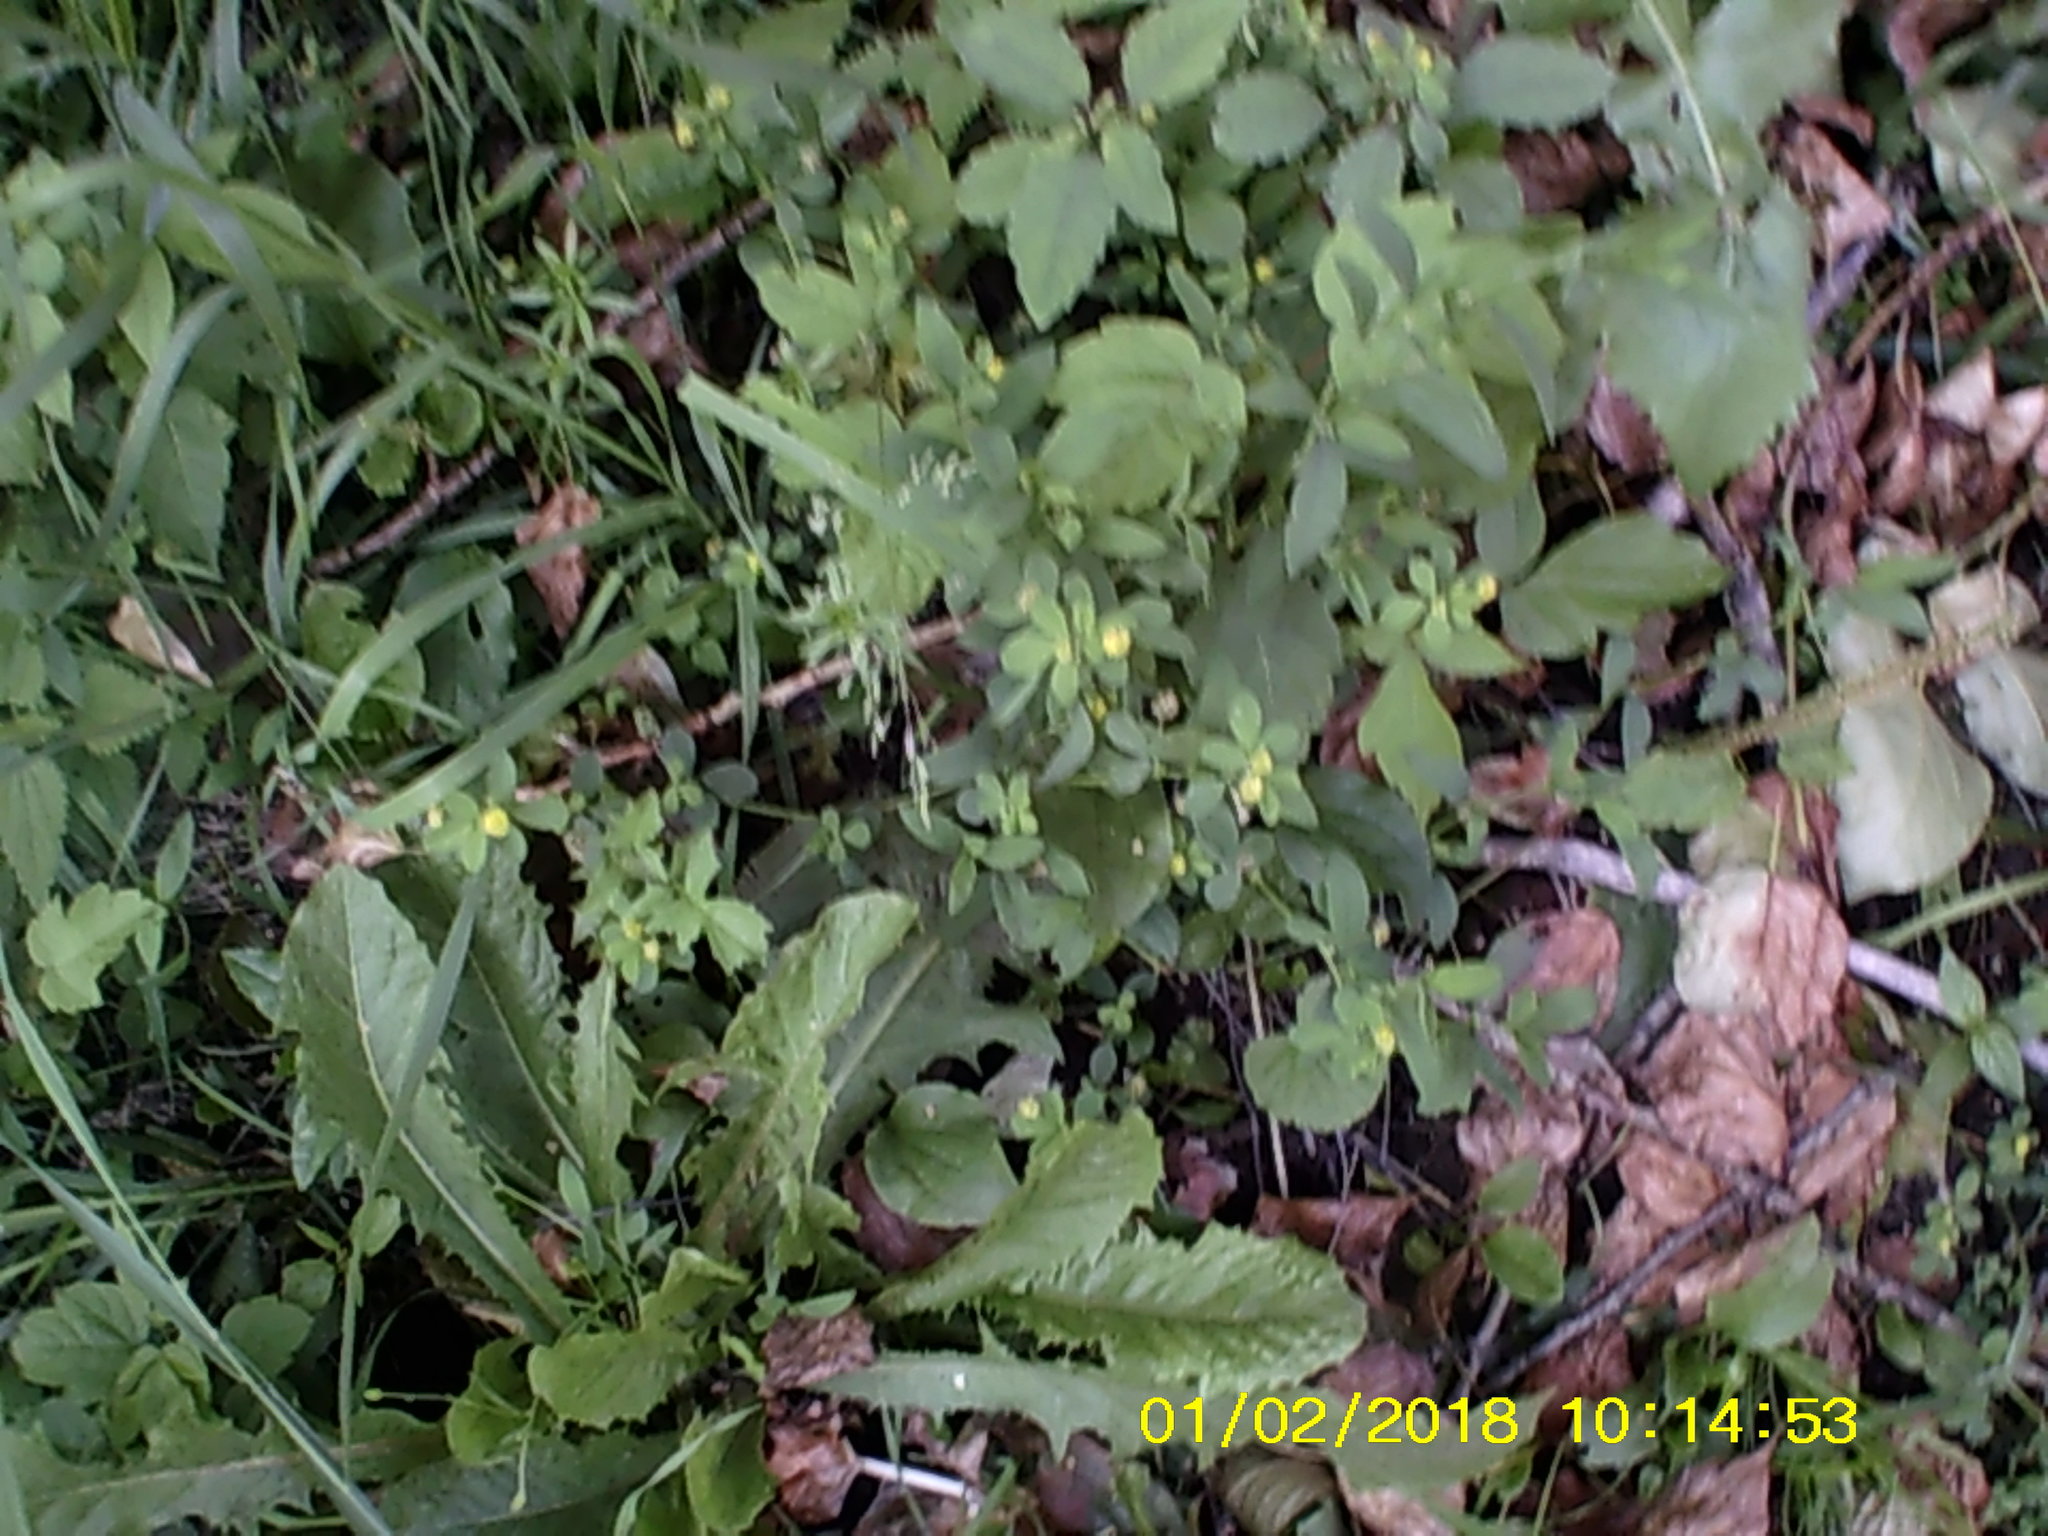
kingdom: Plantae
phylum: Tracheophyta
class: Magnoliopsida
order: Fabales
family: Fabaceae
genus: Medicago
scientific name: Medicago lupulina
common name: Black medick
